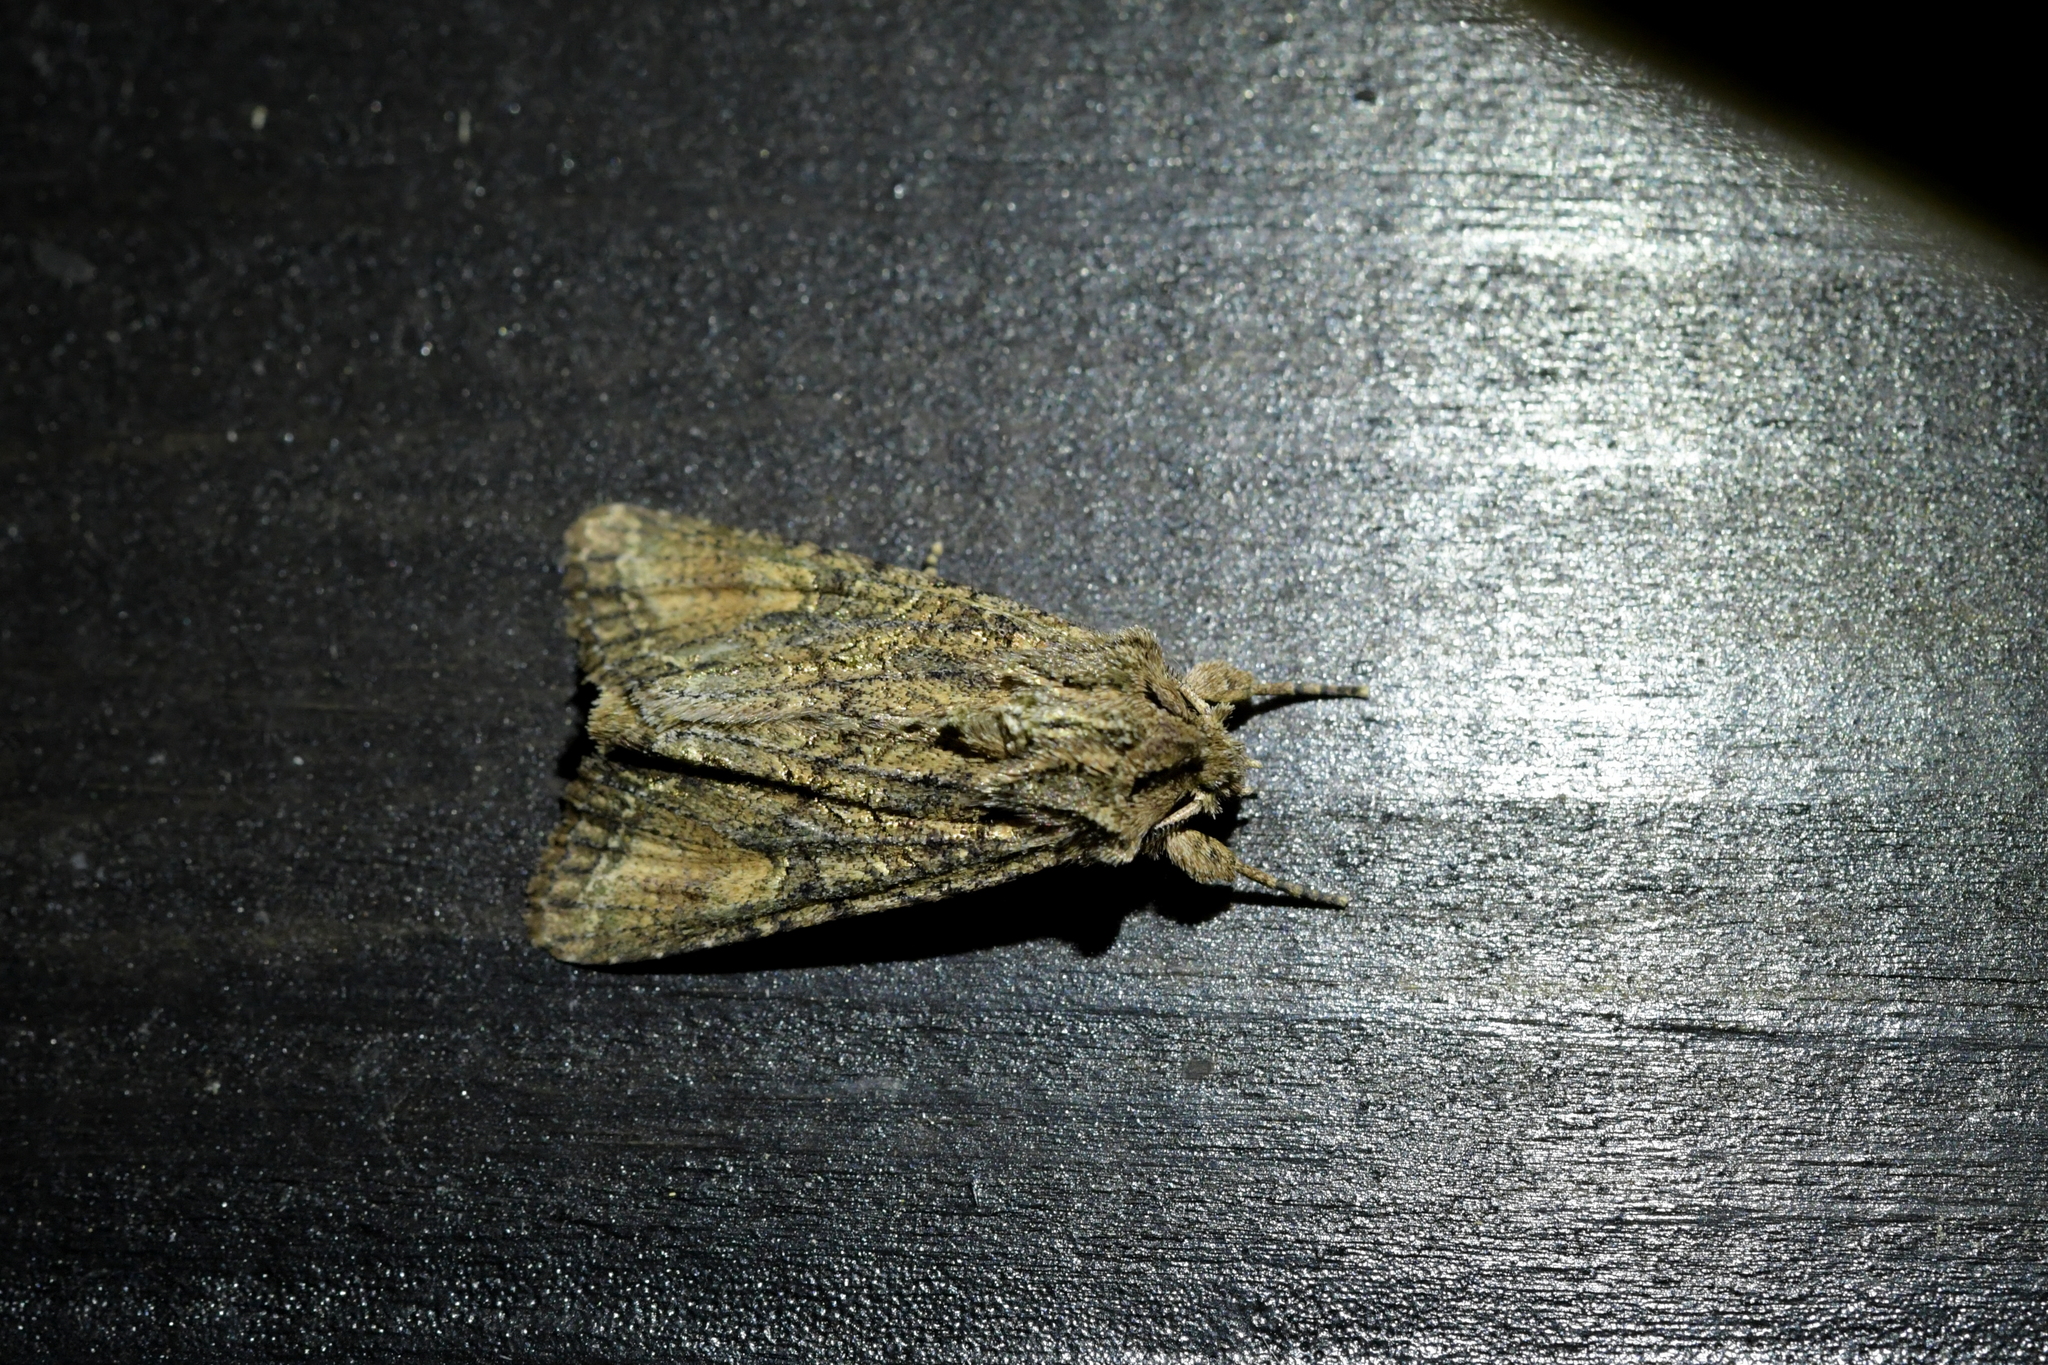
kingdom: Animalia
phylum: Arthropoda
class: Insecta
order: Lepidoptera
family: Noctuidae
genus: Ichneutica
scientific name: Ichneutica mutans
